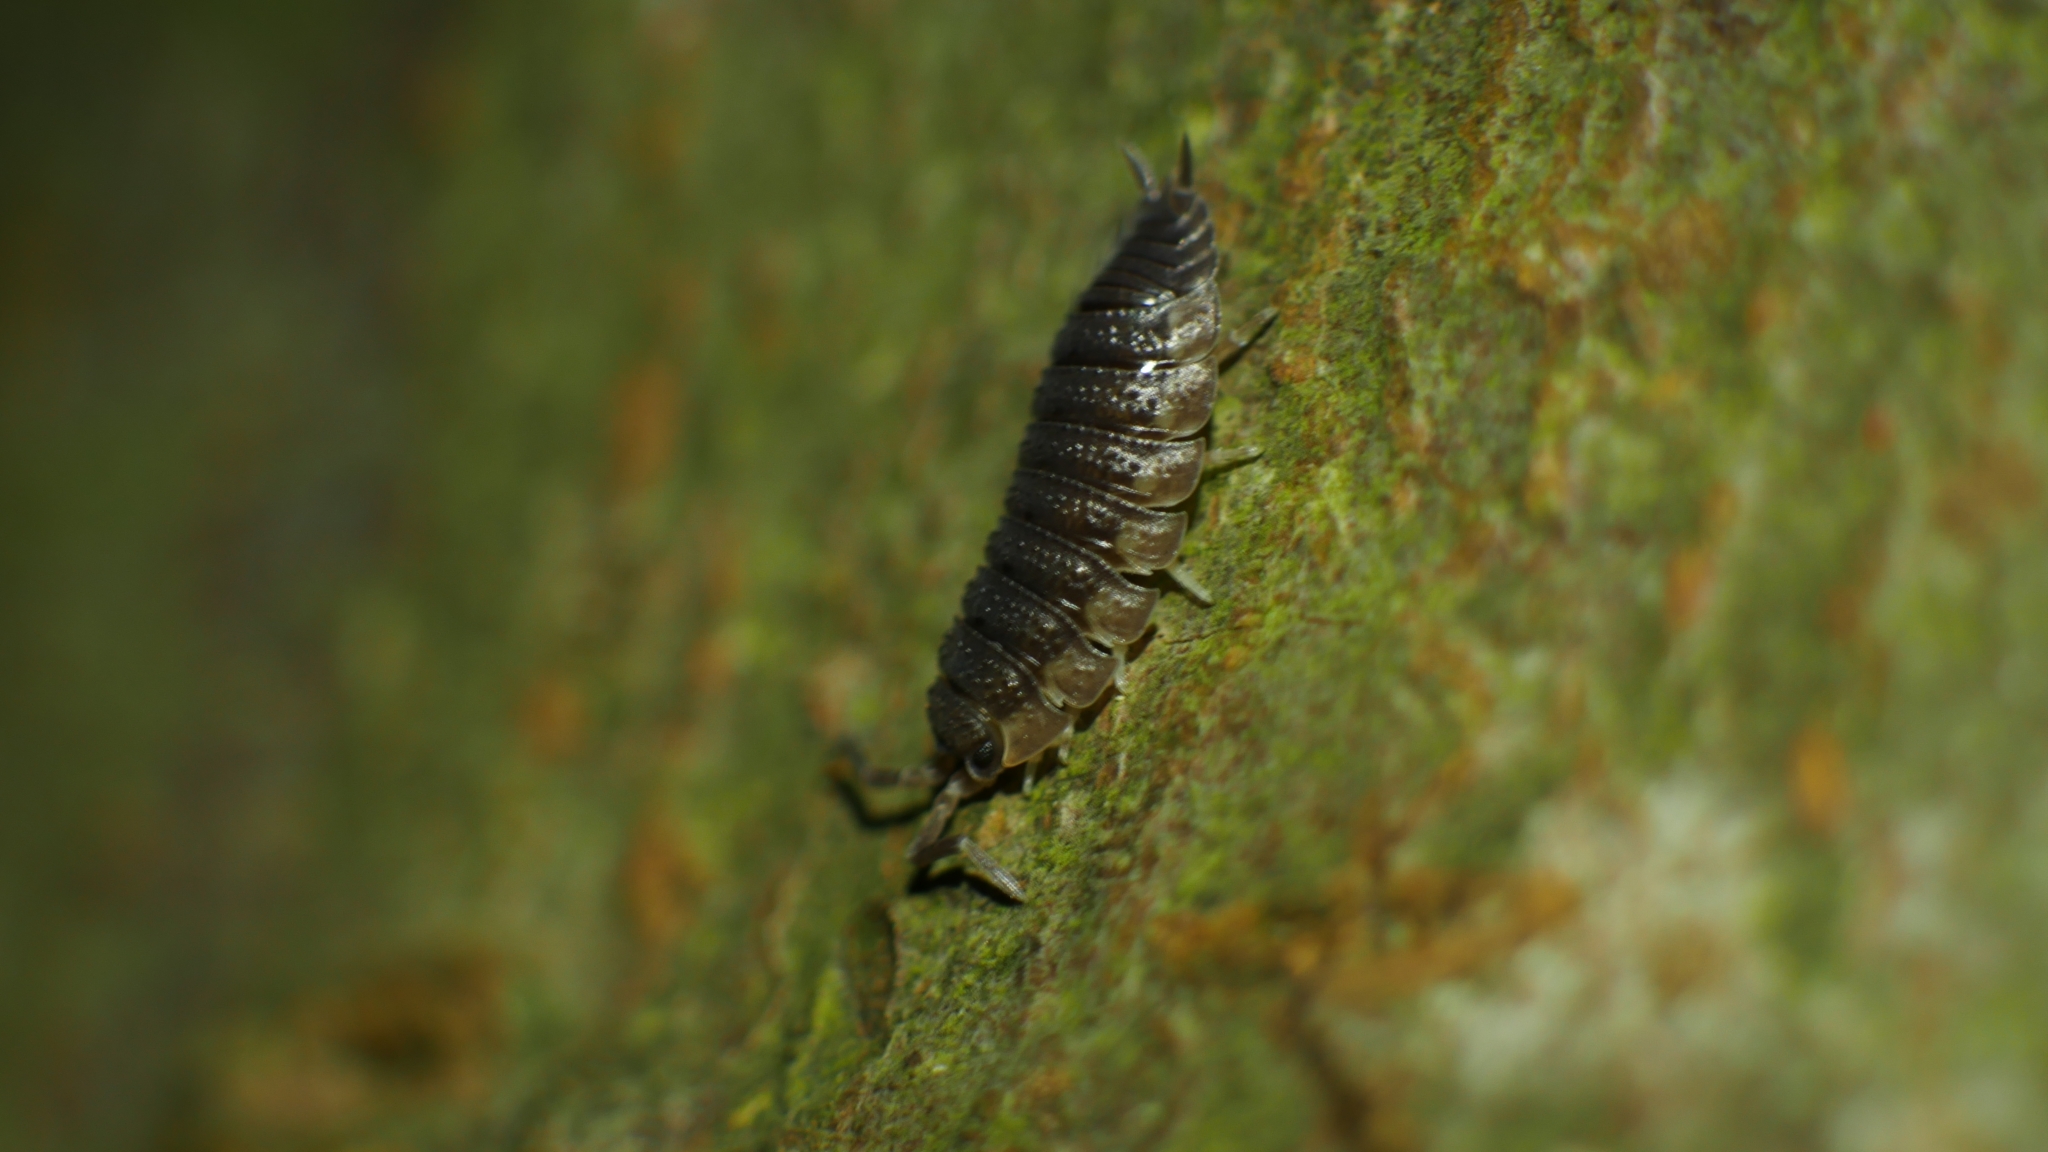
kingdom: Animalia
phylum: Arthropoda
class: Malacostraca
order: Isopoda
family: Porcellionidae
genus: Porcellio
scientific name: Porcellio scaber
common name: Common rough woodlouse
